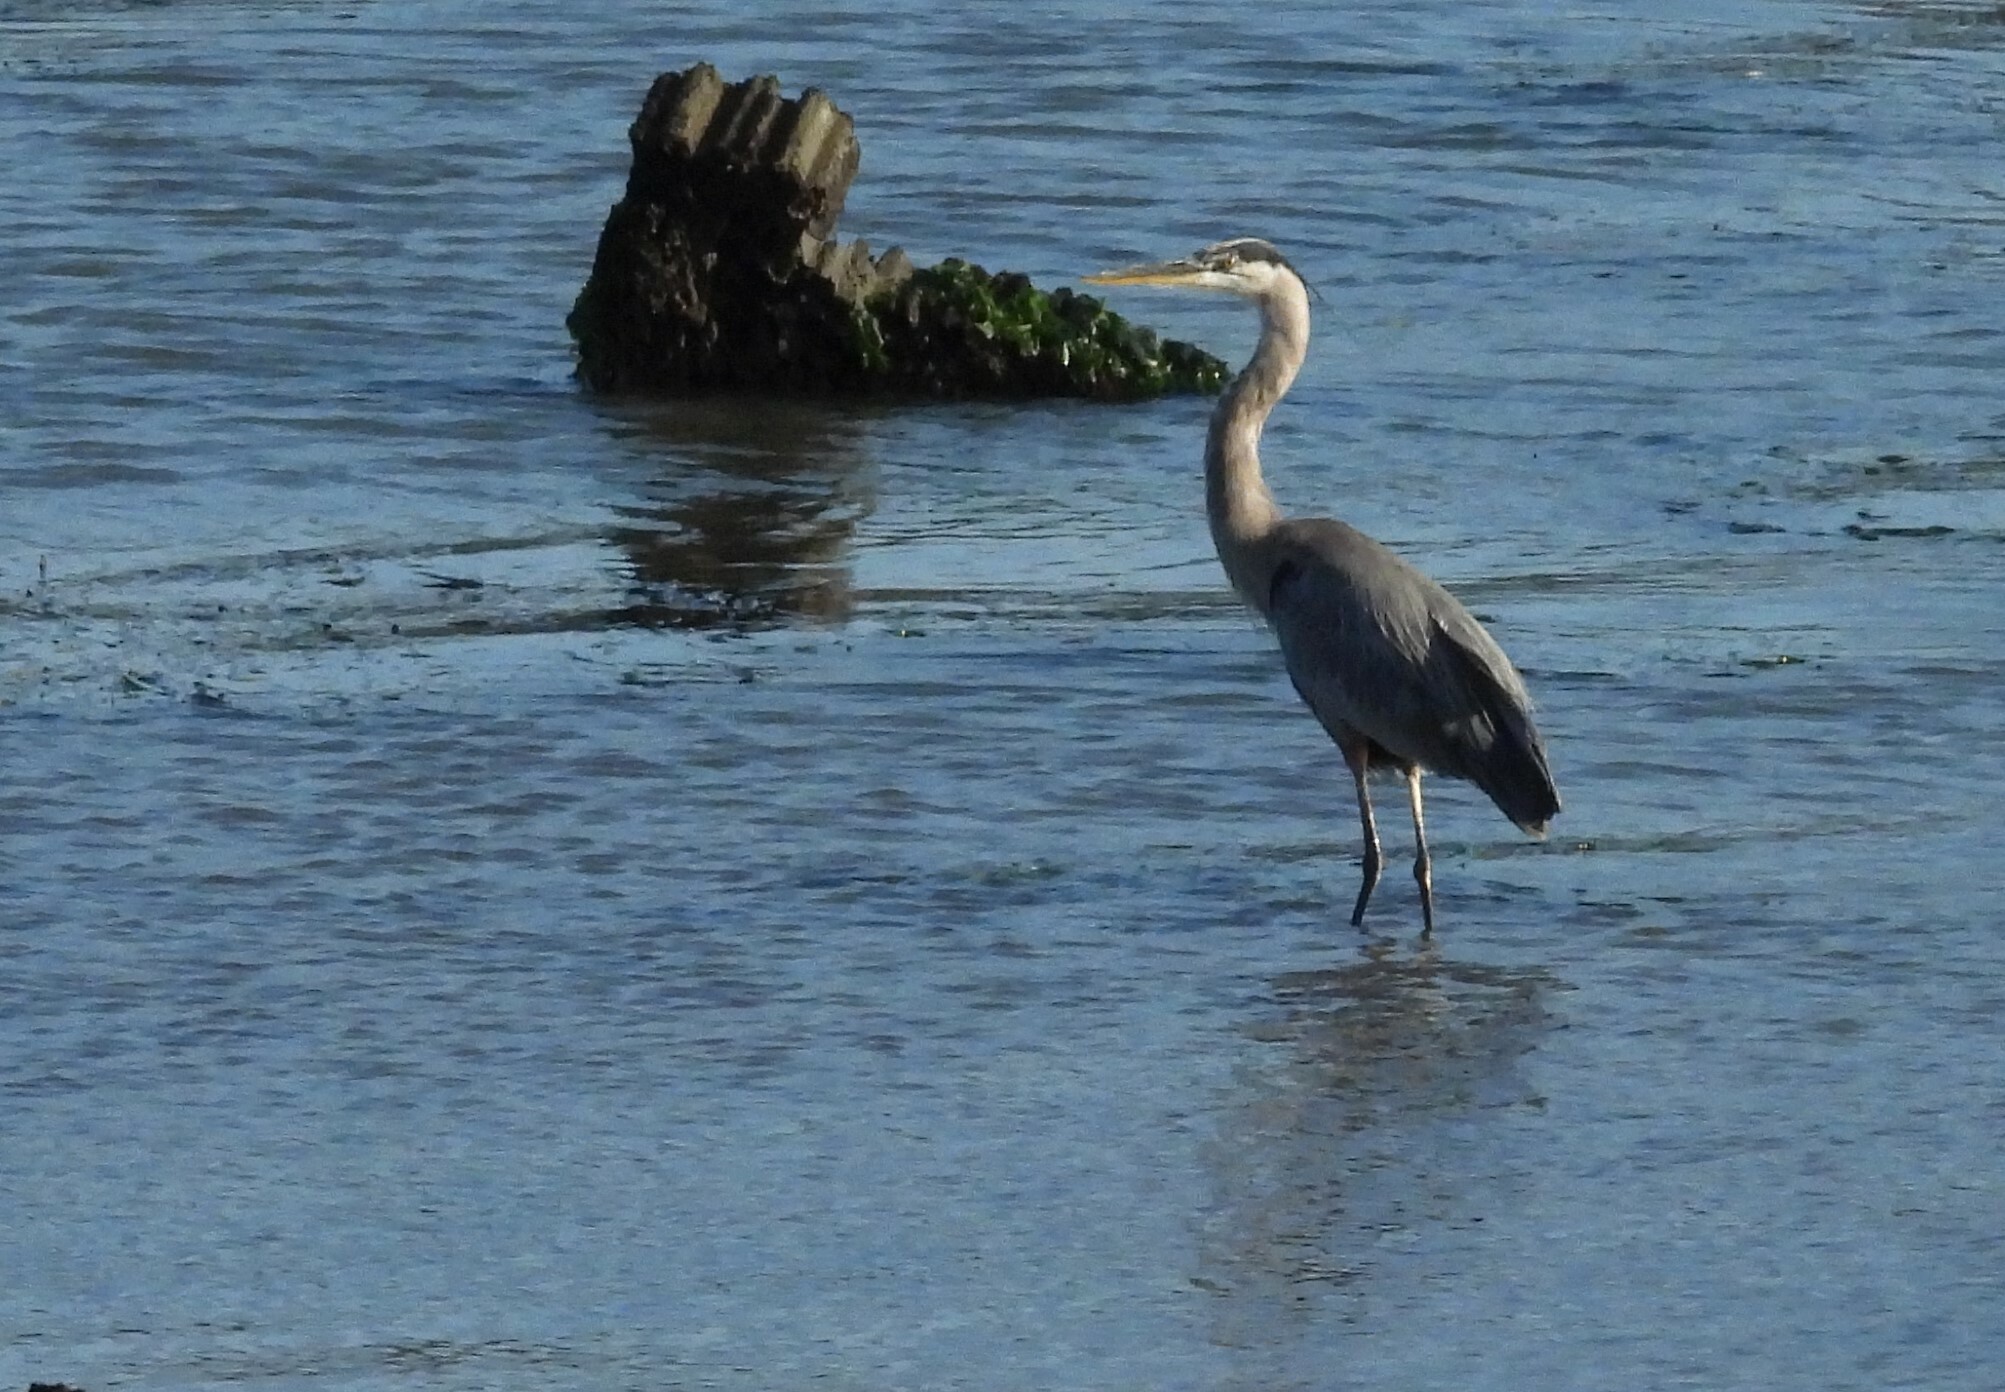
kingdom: Animalia
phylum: Chordata
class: Aves
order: Pelecaniformes
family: Ardeidae
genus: Ardea
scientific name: Ardea herodias
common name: Great blue heron
